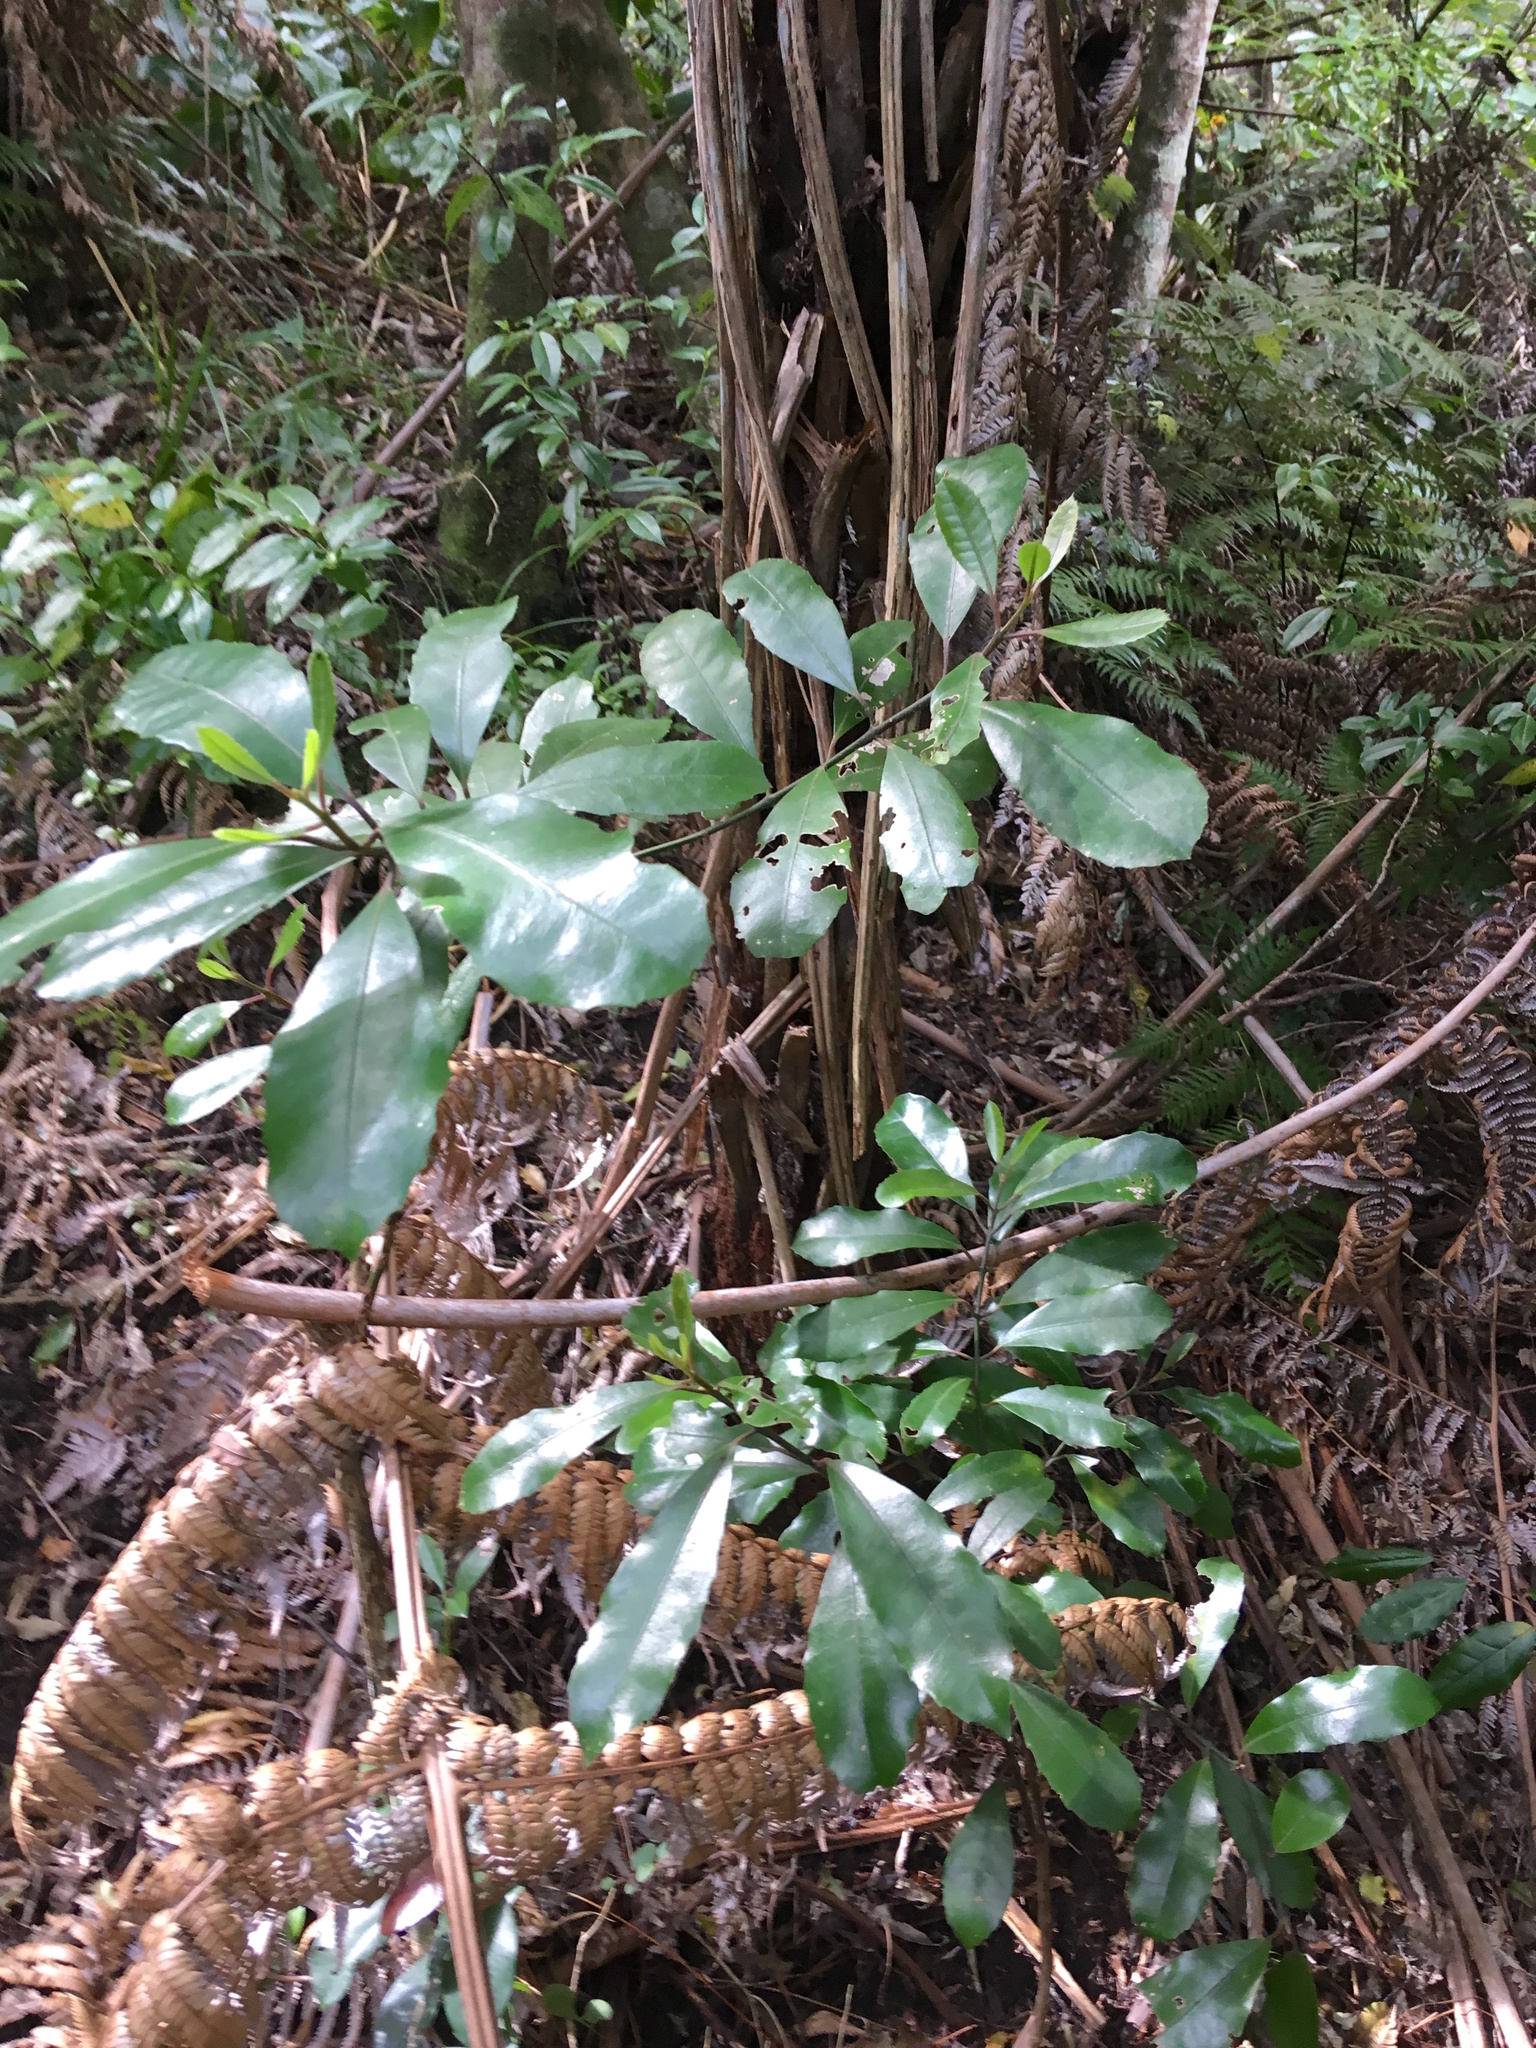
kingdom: Plantae
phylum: Tracheophyta
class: Magnoliopsida
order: Laurales
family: Monimiaceae
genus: Hedycarya
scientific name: Hedycarya arborea
